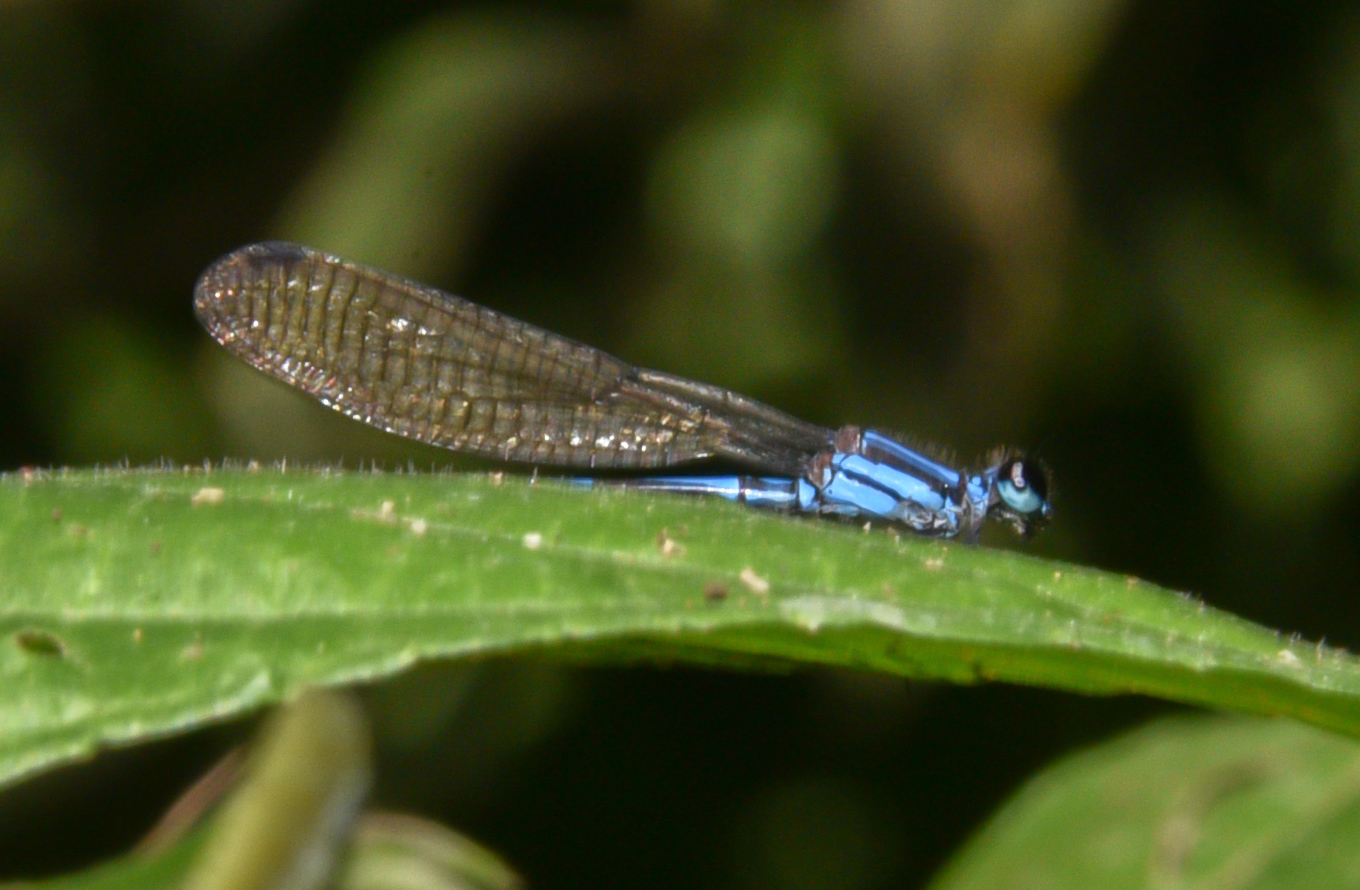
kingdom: Animalia
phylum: Arthropoda
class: Insecta
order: Odonata
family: Coenagrionidae
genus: Argia
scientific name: Argia adamsi
